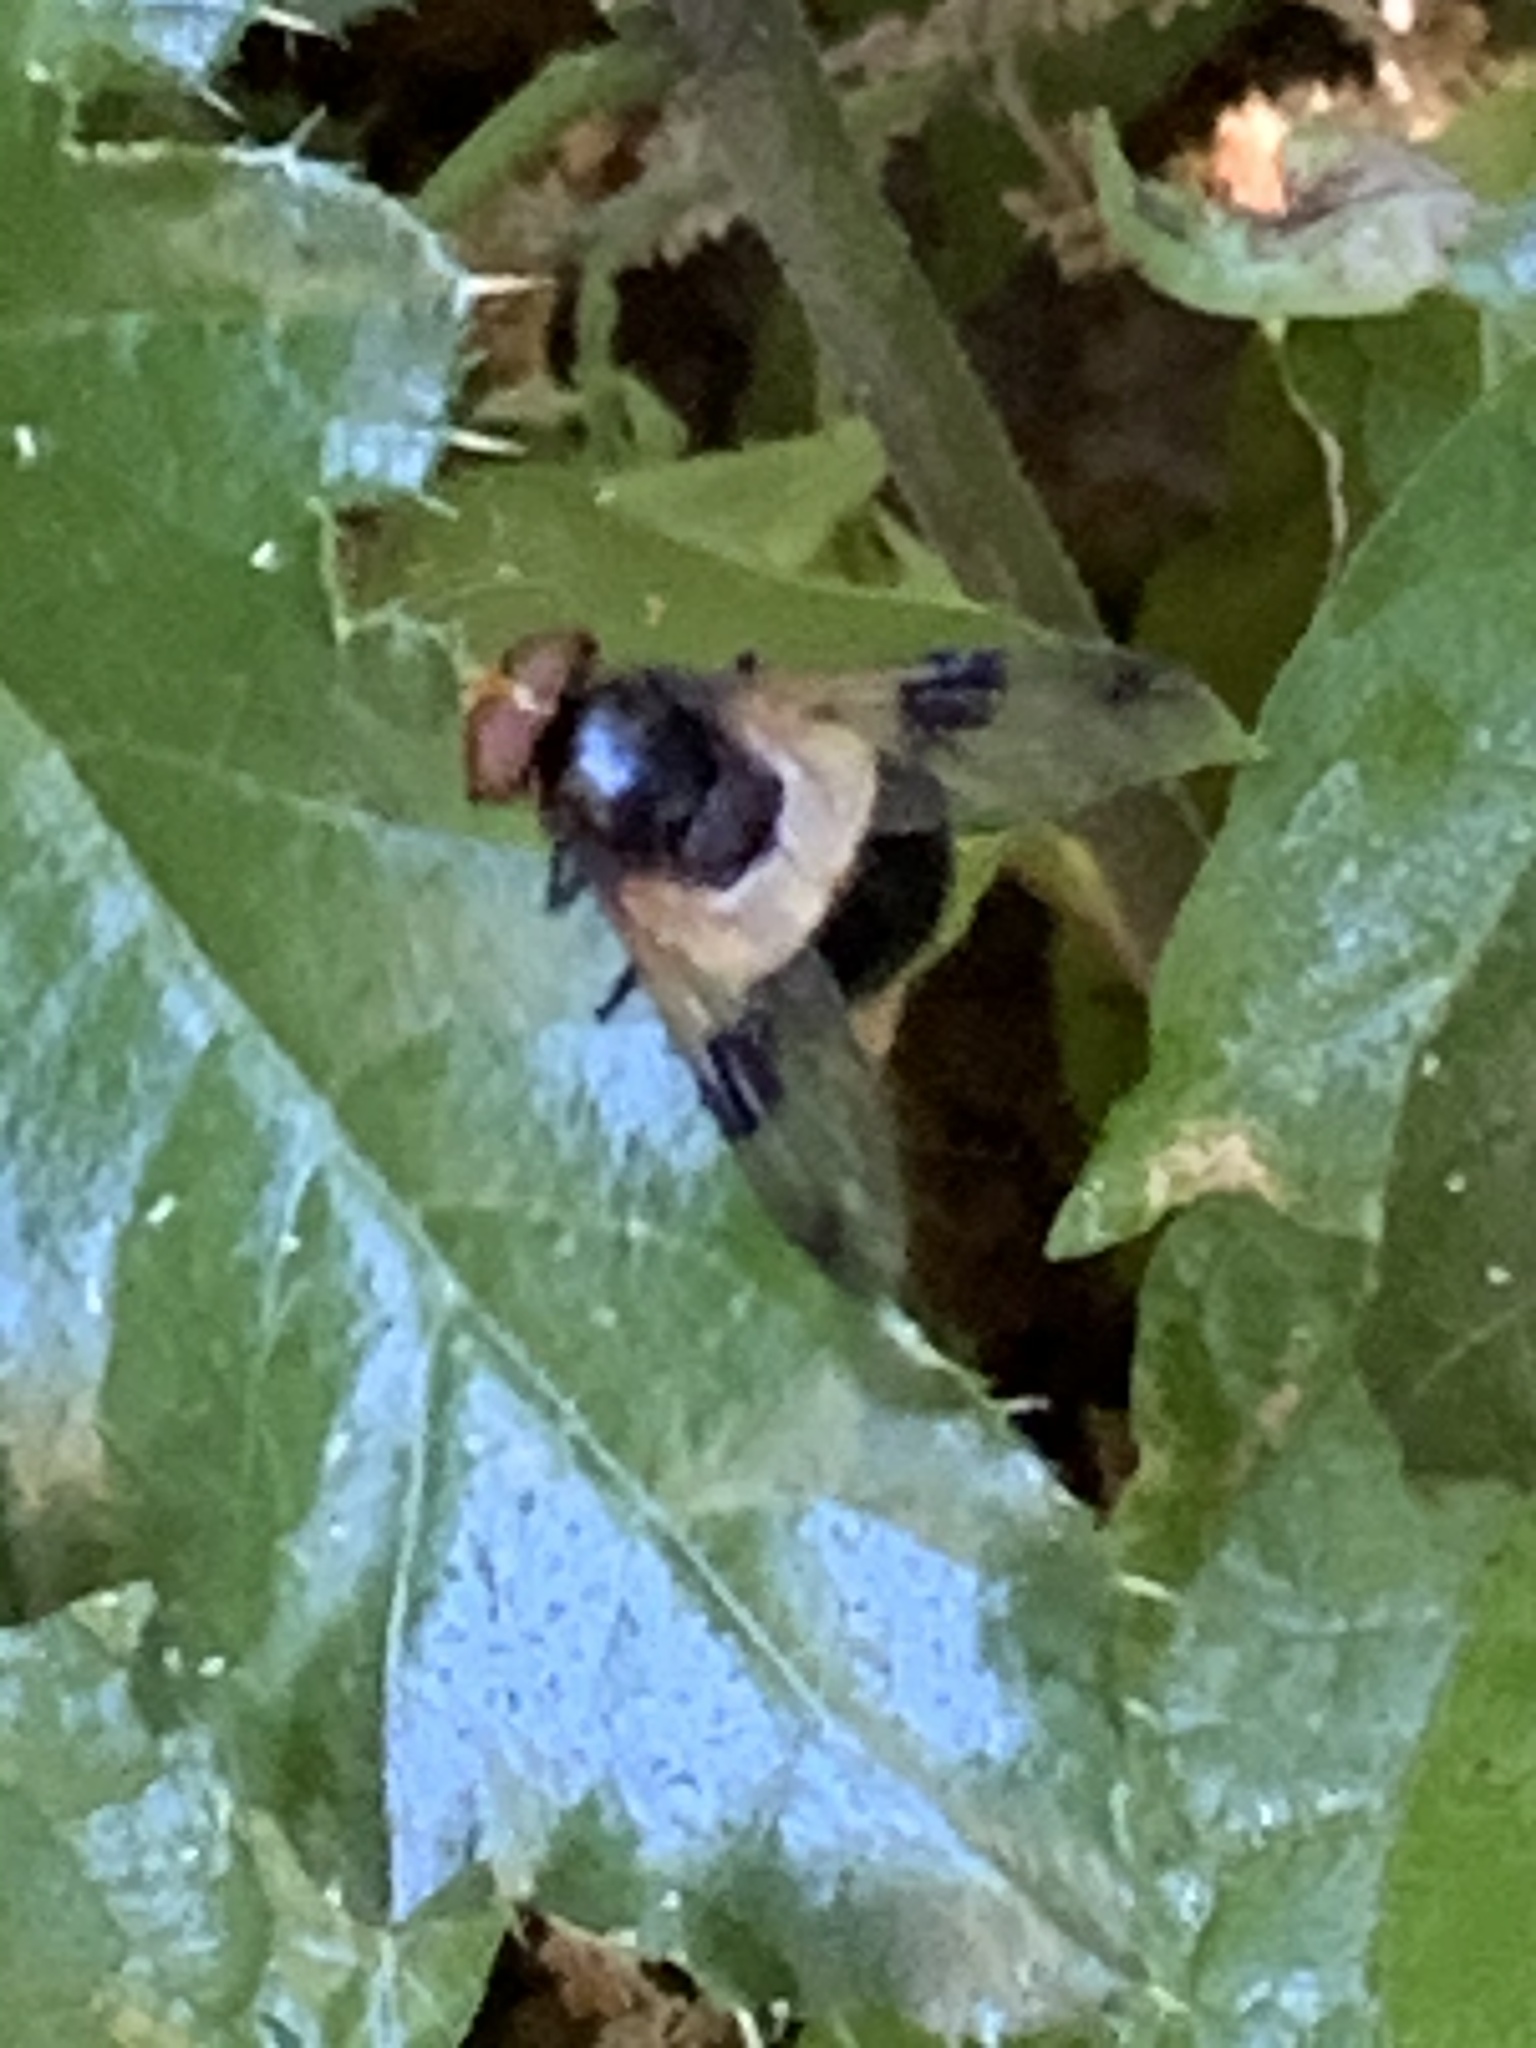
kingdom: Animalia
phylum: Arthropoda
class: Insecta
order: Diptera
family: Syrphidae
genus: Volucella
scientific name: Volucella pellucens
